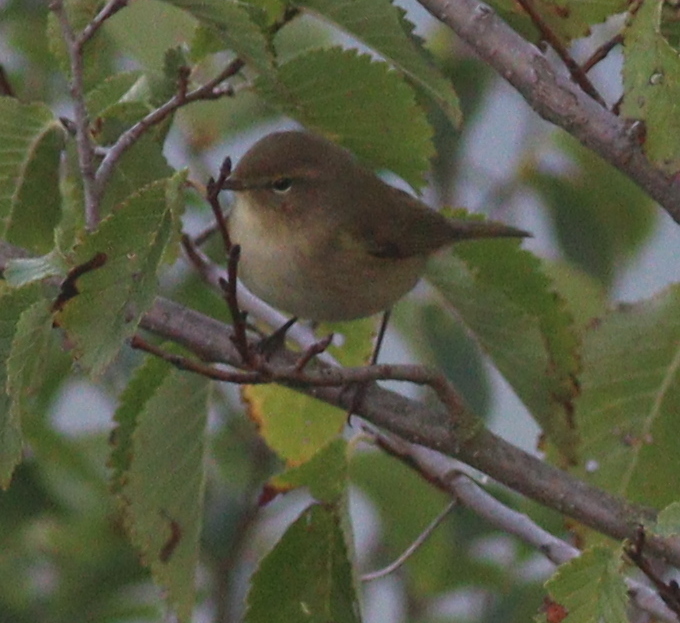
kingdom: Animalia
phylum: Chordata
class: Aves
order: Passeriformes
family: Phylloscopidae
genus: Phylloscopus
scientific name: Phylloscopus collybita
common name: Common chiffchaff
